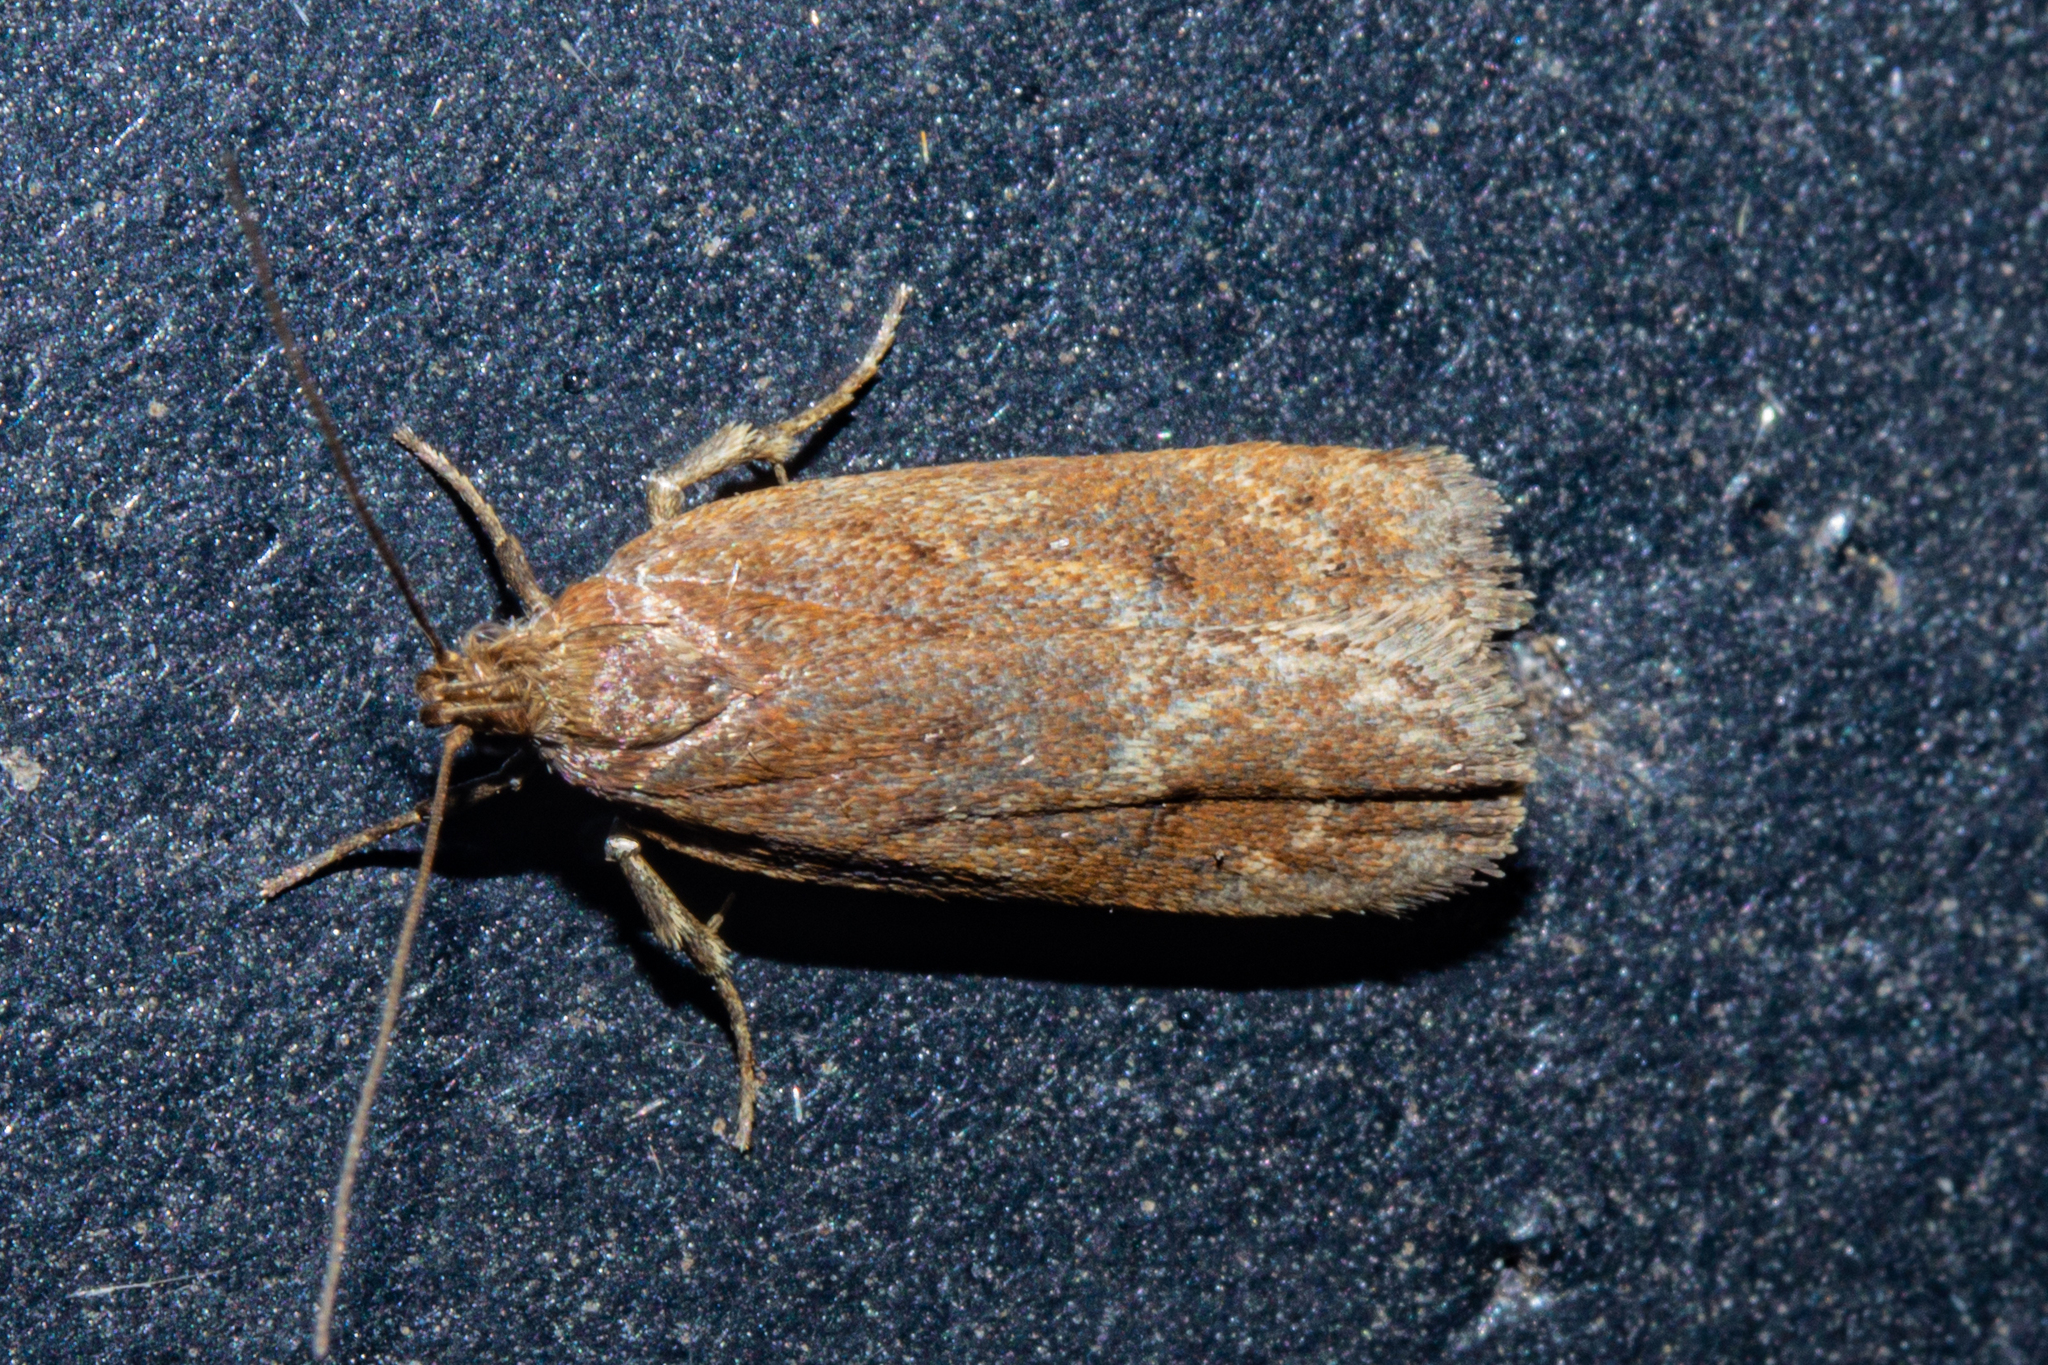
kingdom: Animalia
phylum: Arthropoda
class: Insecta
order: Lepidoptera
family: Depressariidae
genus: Phaeosaces
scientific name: Phaeosaces apocrypta
